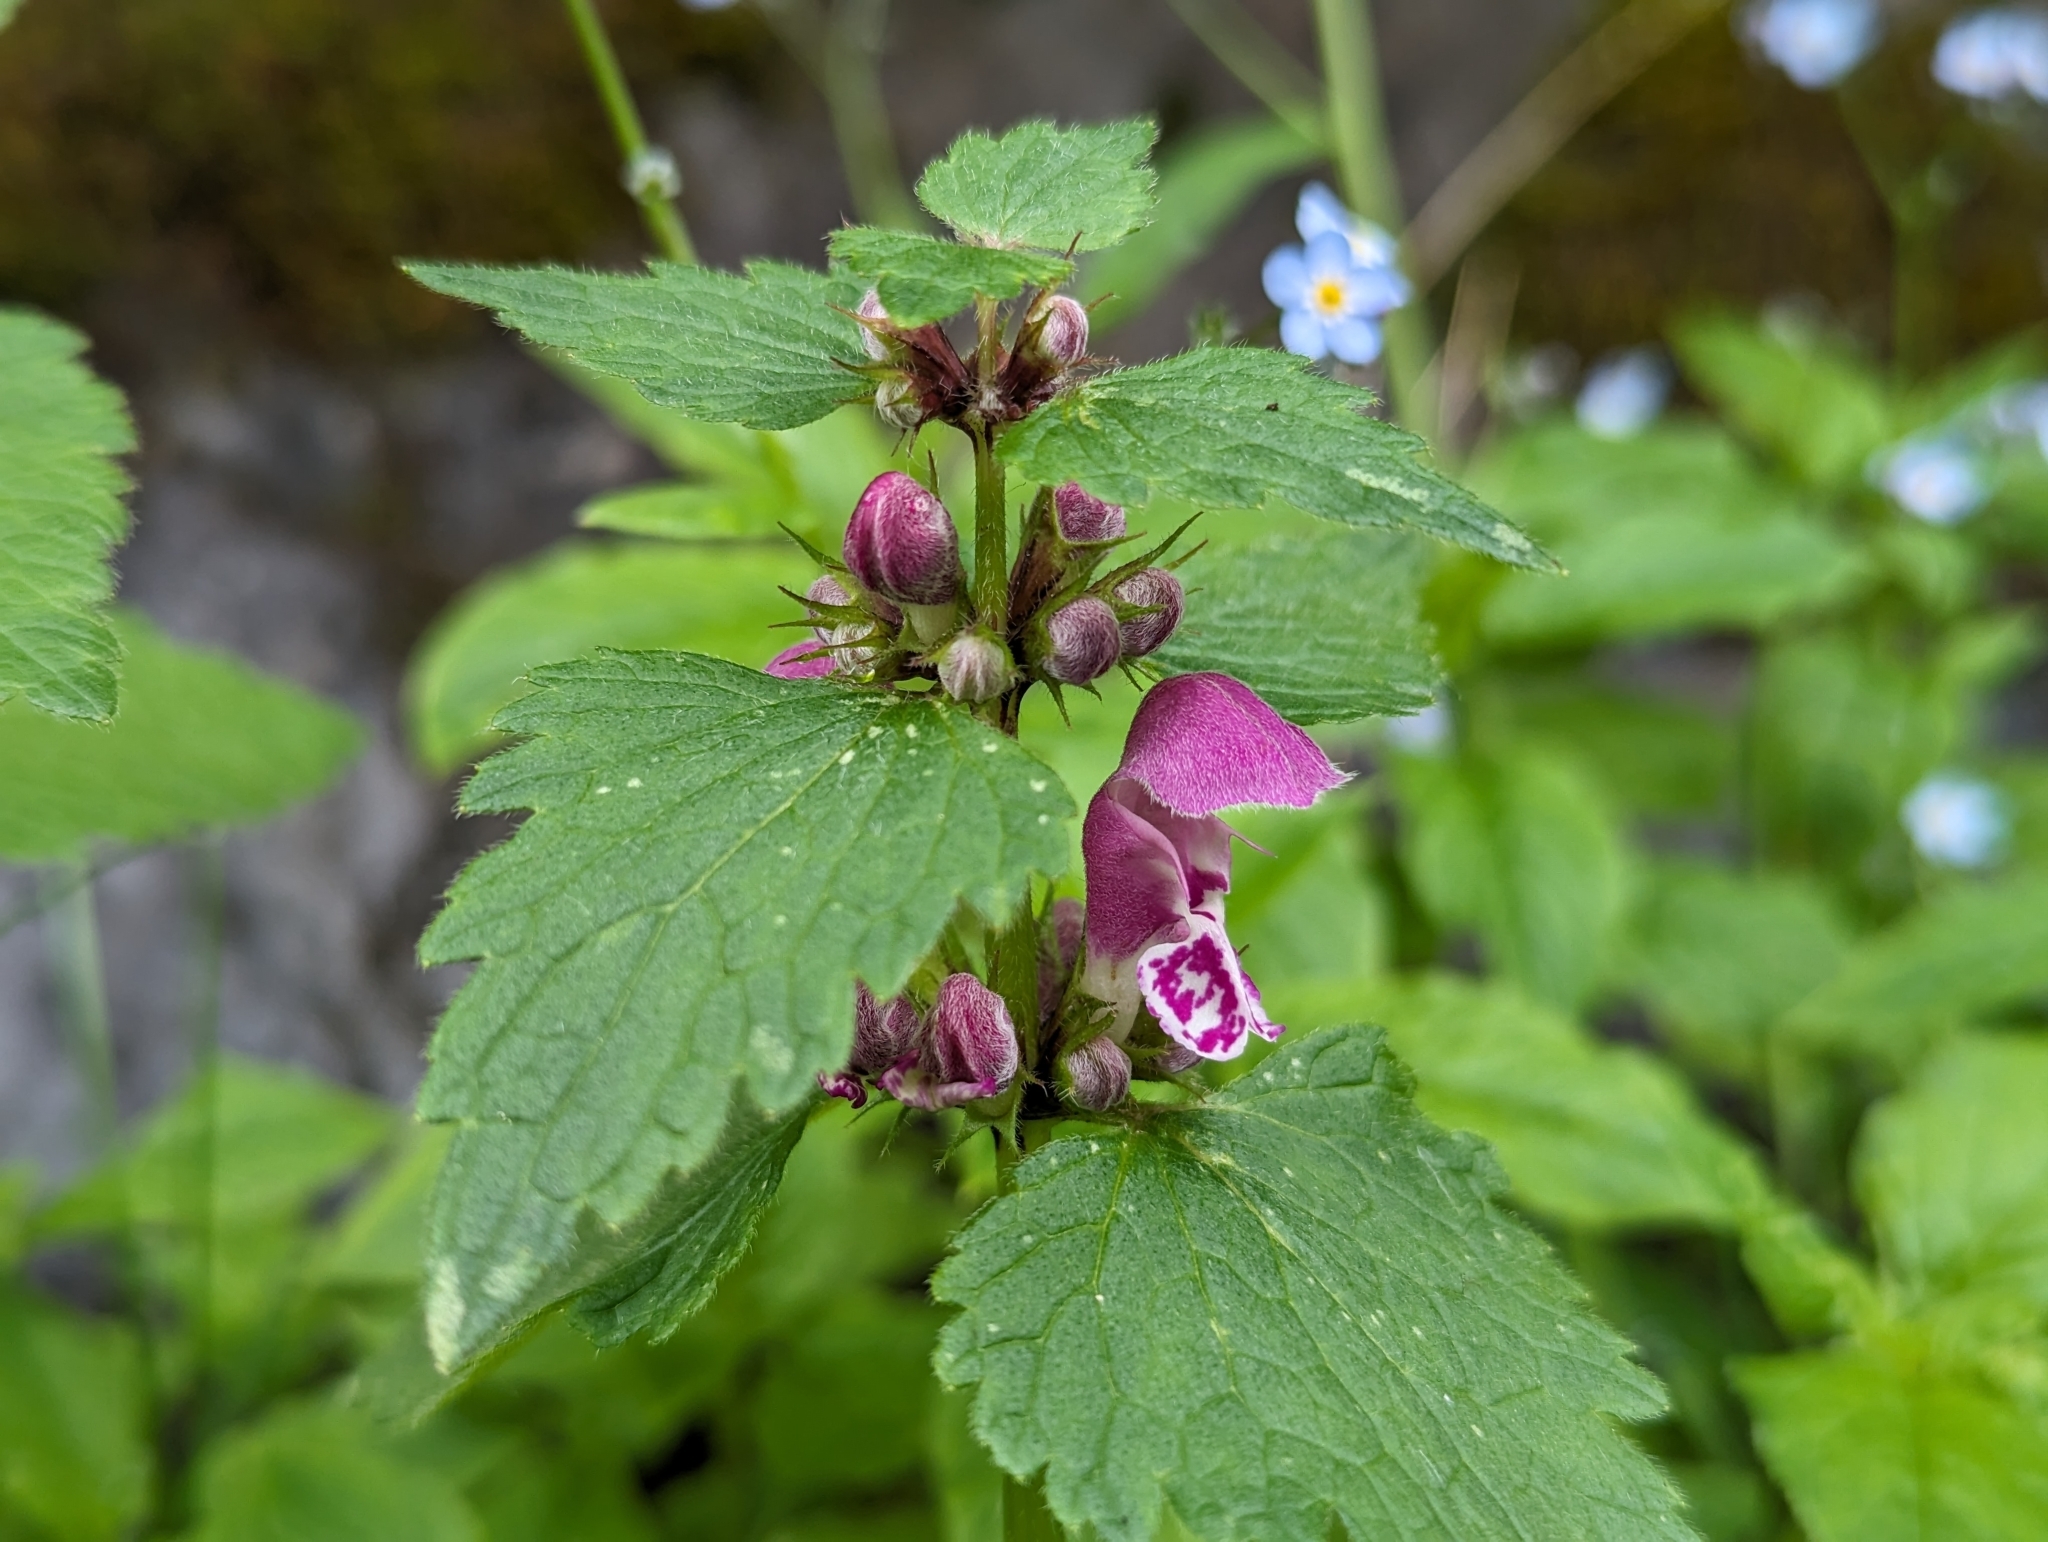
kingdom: Plantae
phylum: Tracheophyta
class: Magnoliopsida
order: Lamiales
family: Lamiaceae
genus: Lamium
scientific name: Lamium maculatum
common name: Spotted dead-nettle
